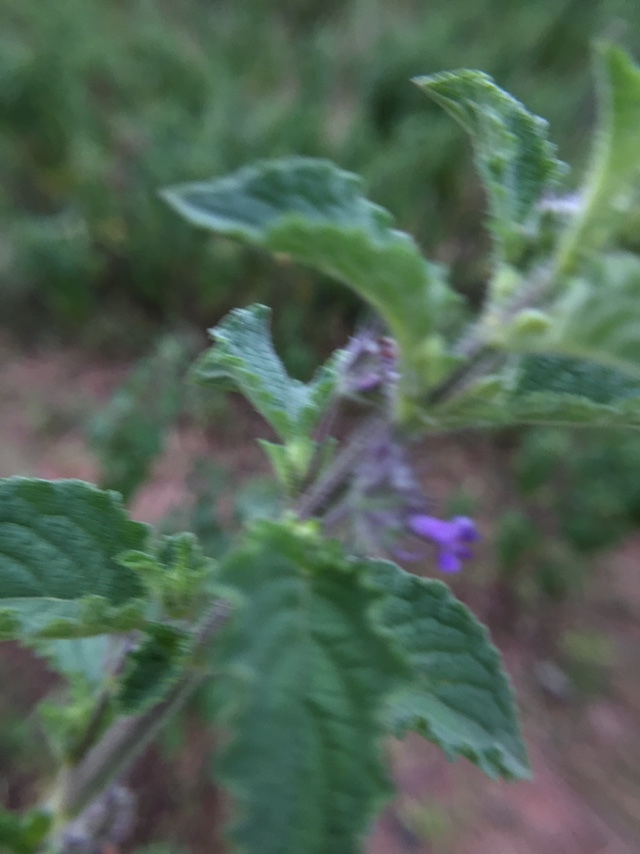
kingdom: Plantae
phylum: Tracheophyta
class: Magnoliopsida
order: Lamiales
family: Lamiaceae
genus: Mesosphaerum
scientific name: Mesosphaerum suaveolens
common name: Pignut
